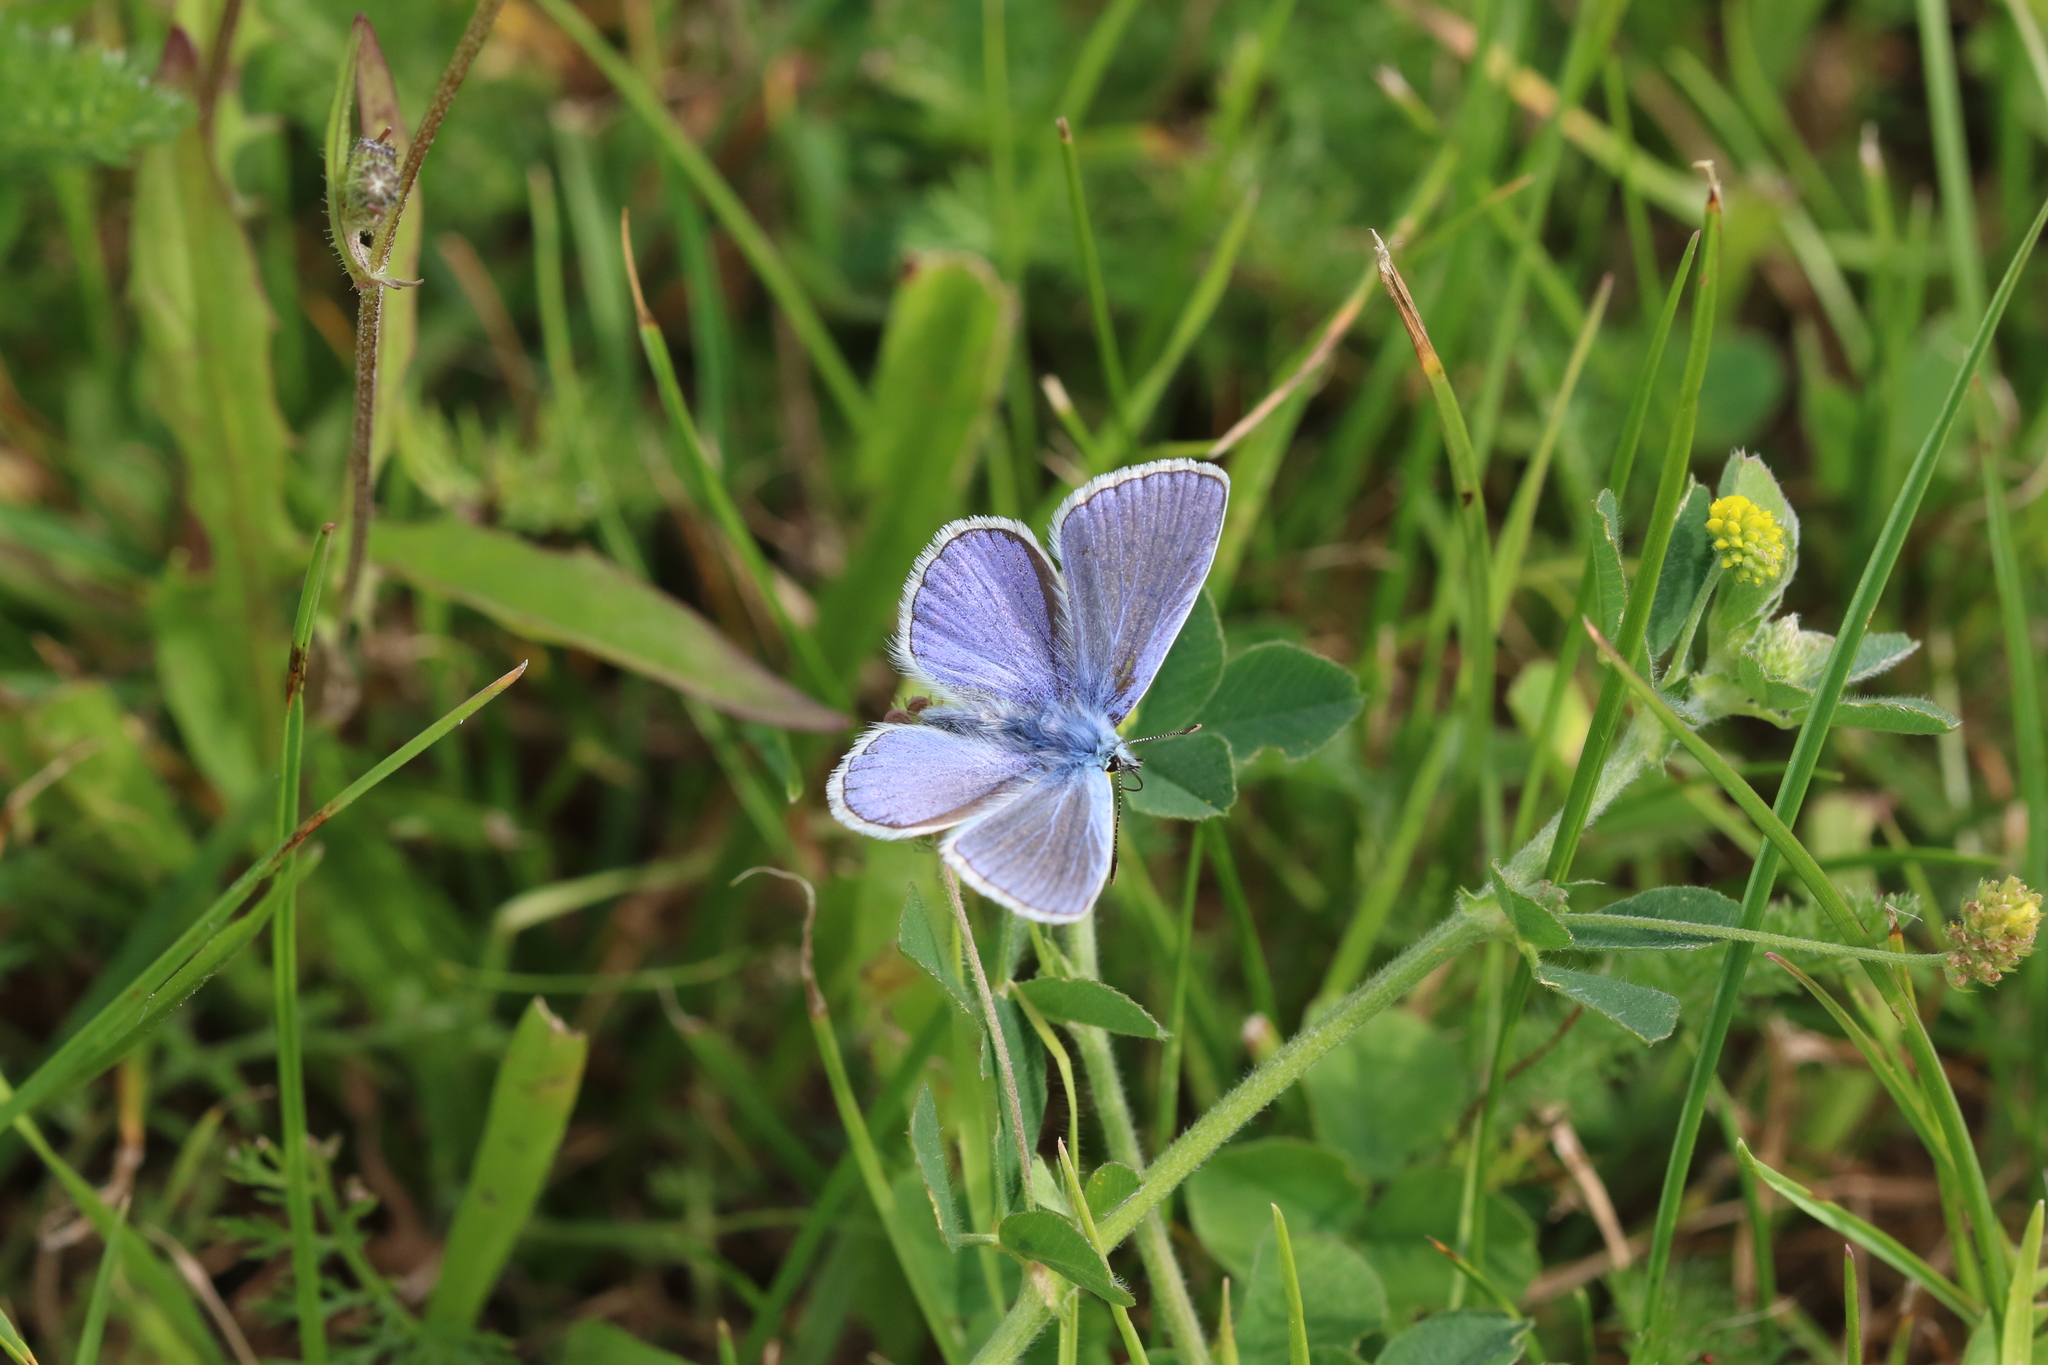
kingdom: Animalia
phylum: Arthropoda
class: Insecta
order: Lepidoptera
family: Lycaenidae
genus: Polyommatus
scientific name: Polyommatus icarus
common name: Common blue
